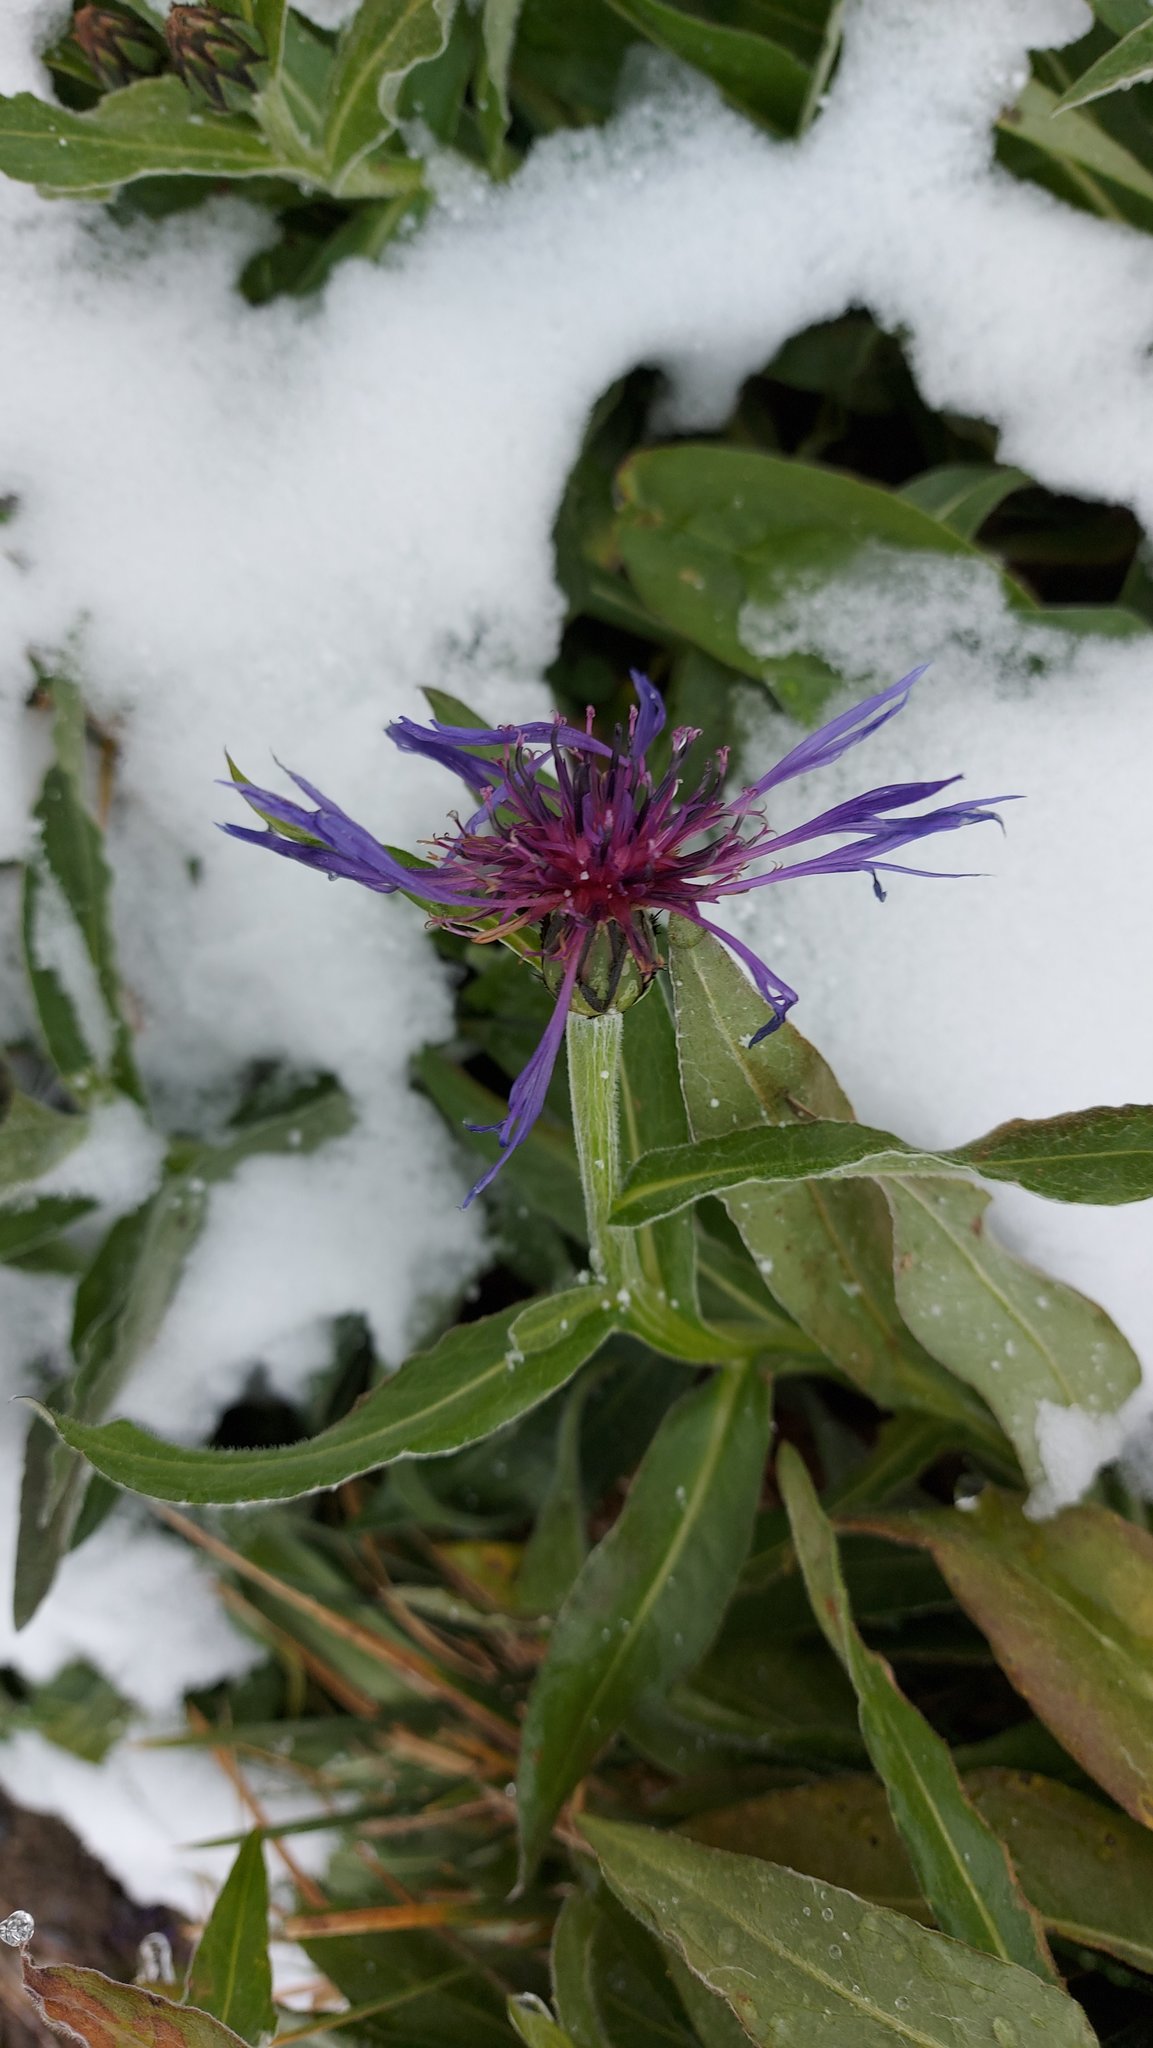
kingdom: Plantae
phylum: Tracheophyta
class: Magnoliopsida
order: Asterales
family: Asteraceae
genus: Centaurea
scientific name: Centaurea montana
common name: Perennial cornflower
